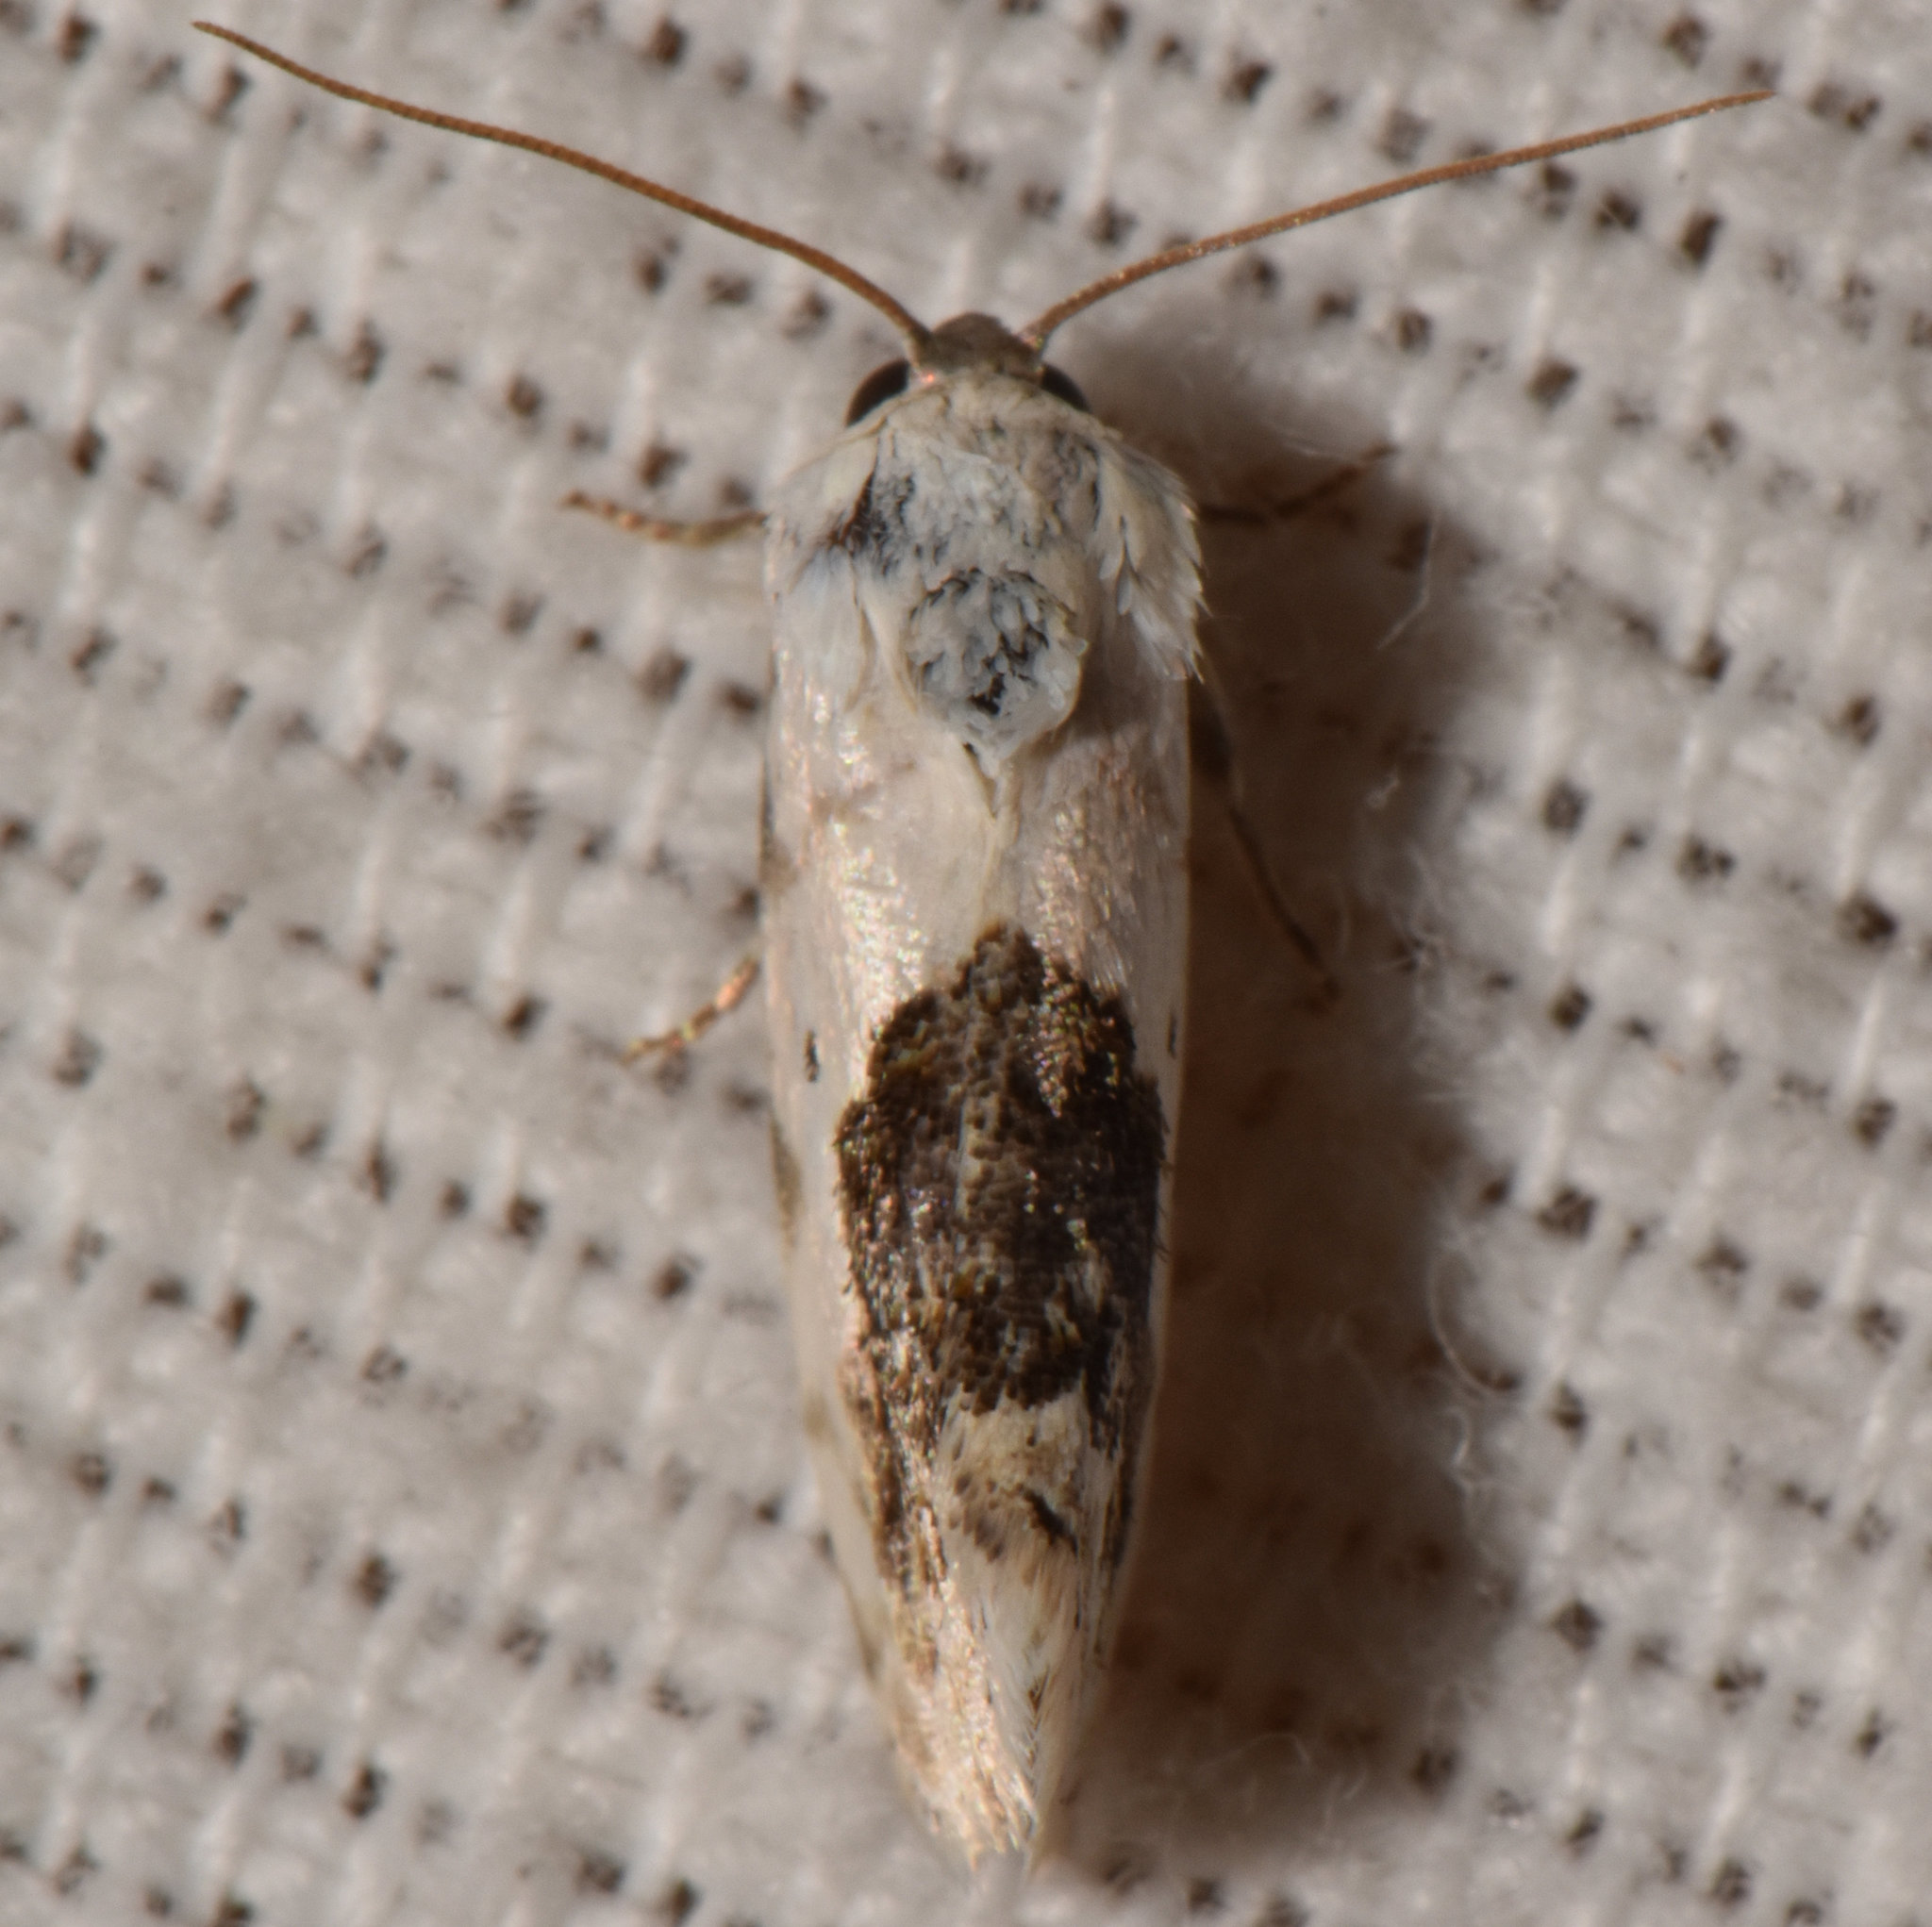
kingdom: Animalia
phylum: Arthropoda
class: Insecta
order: Lepidoptera
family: Noctuidae
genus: Acontia
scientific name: Acontia erastrioides
